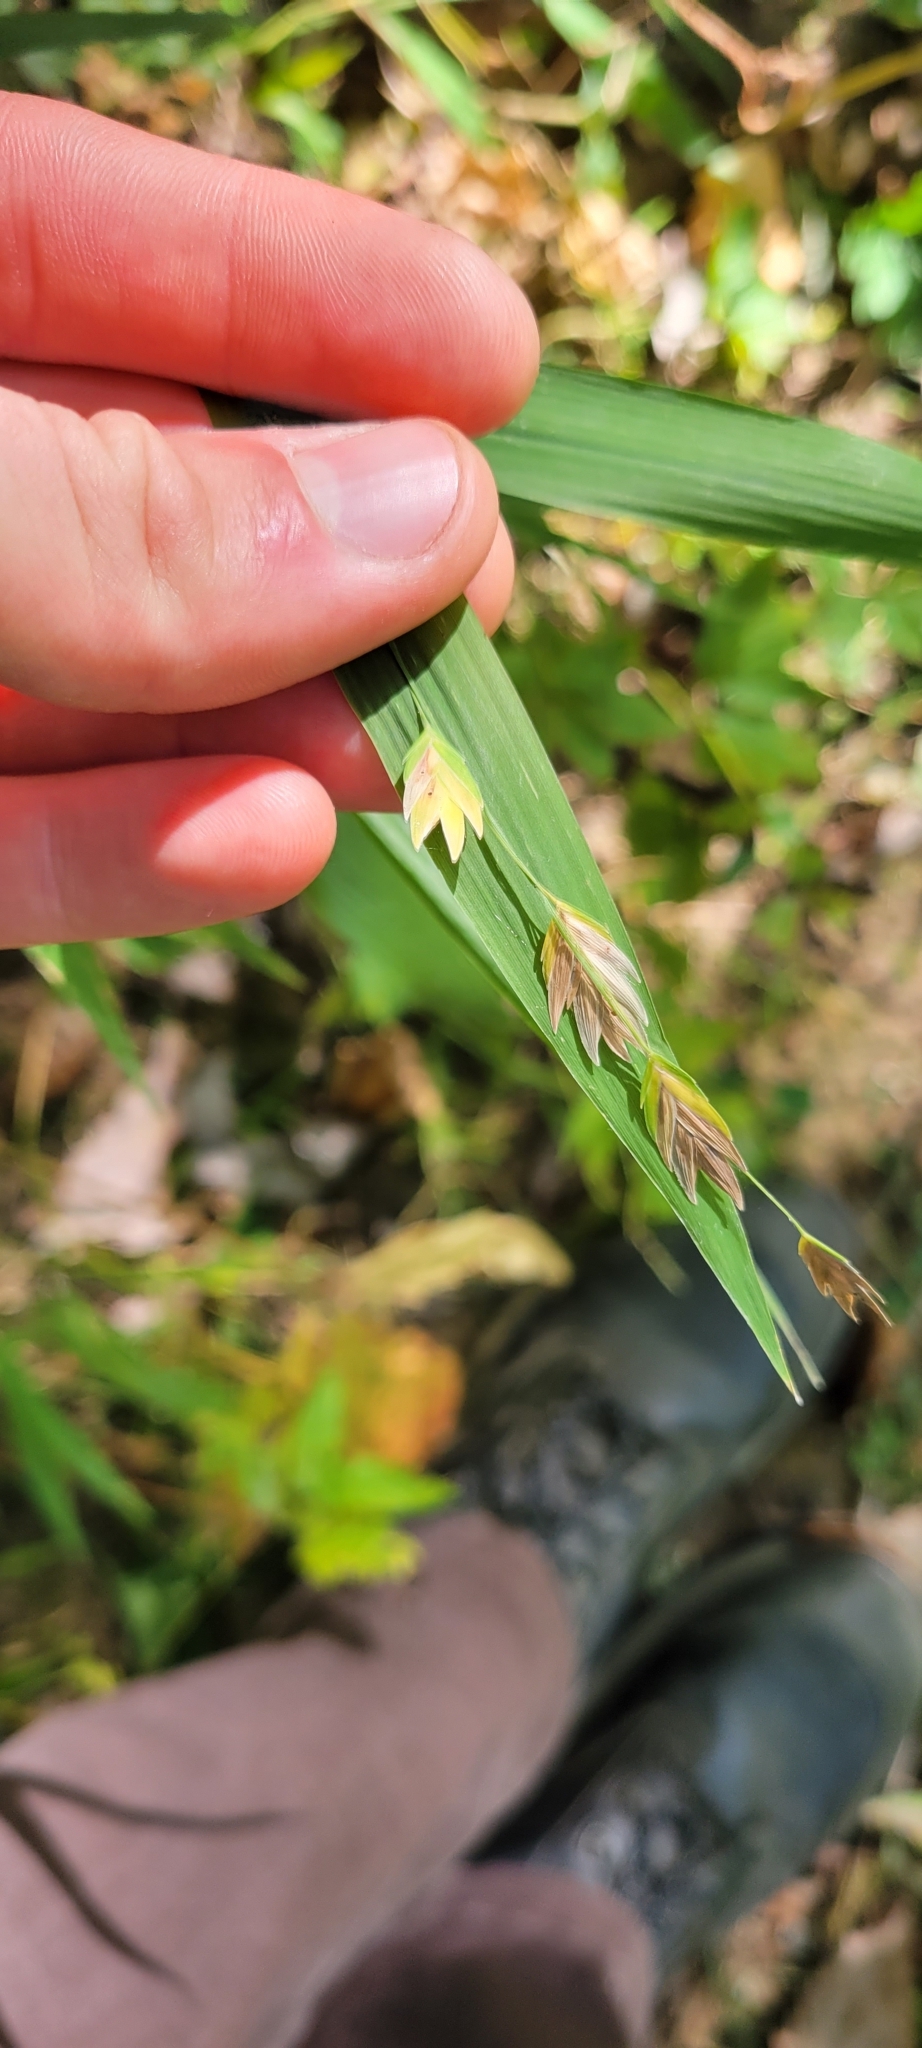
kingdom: Plantae
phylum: Tracheophyta
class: Liliopsida
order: Poales
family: Poaceae
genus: Chasmanthium
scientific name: Chasmanthium latifolium
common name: Broad-leaved chasmanthium
